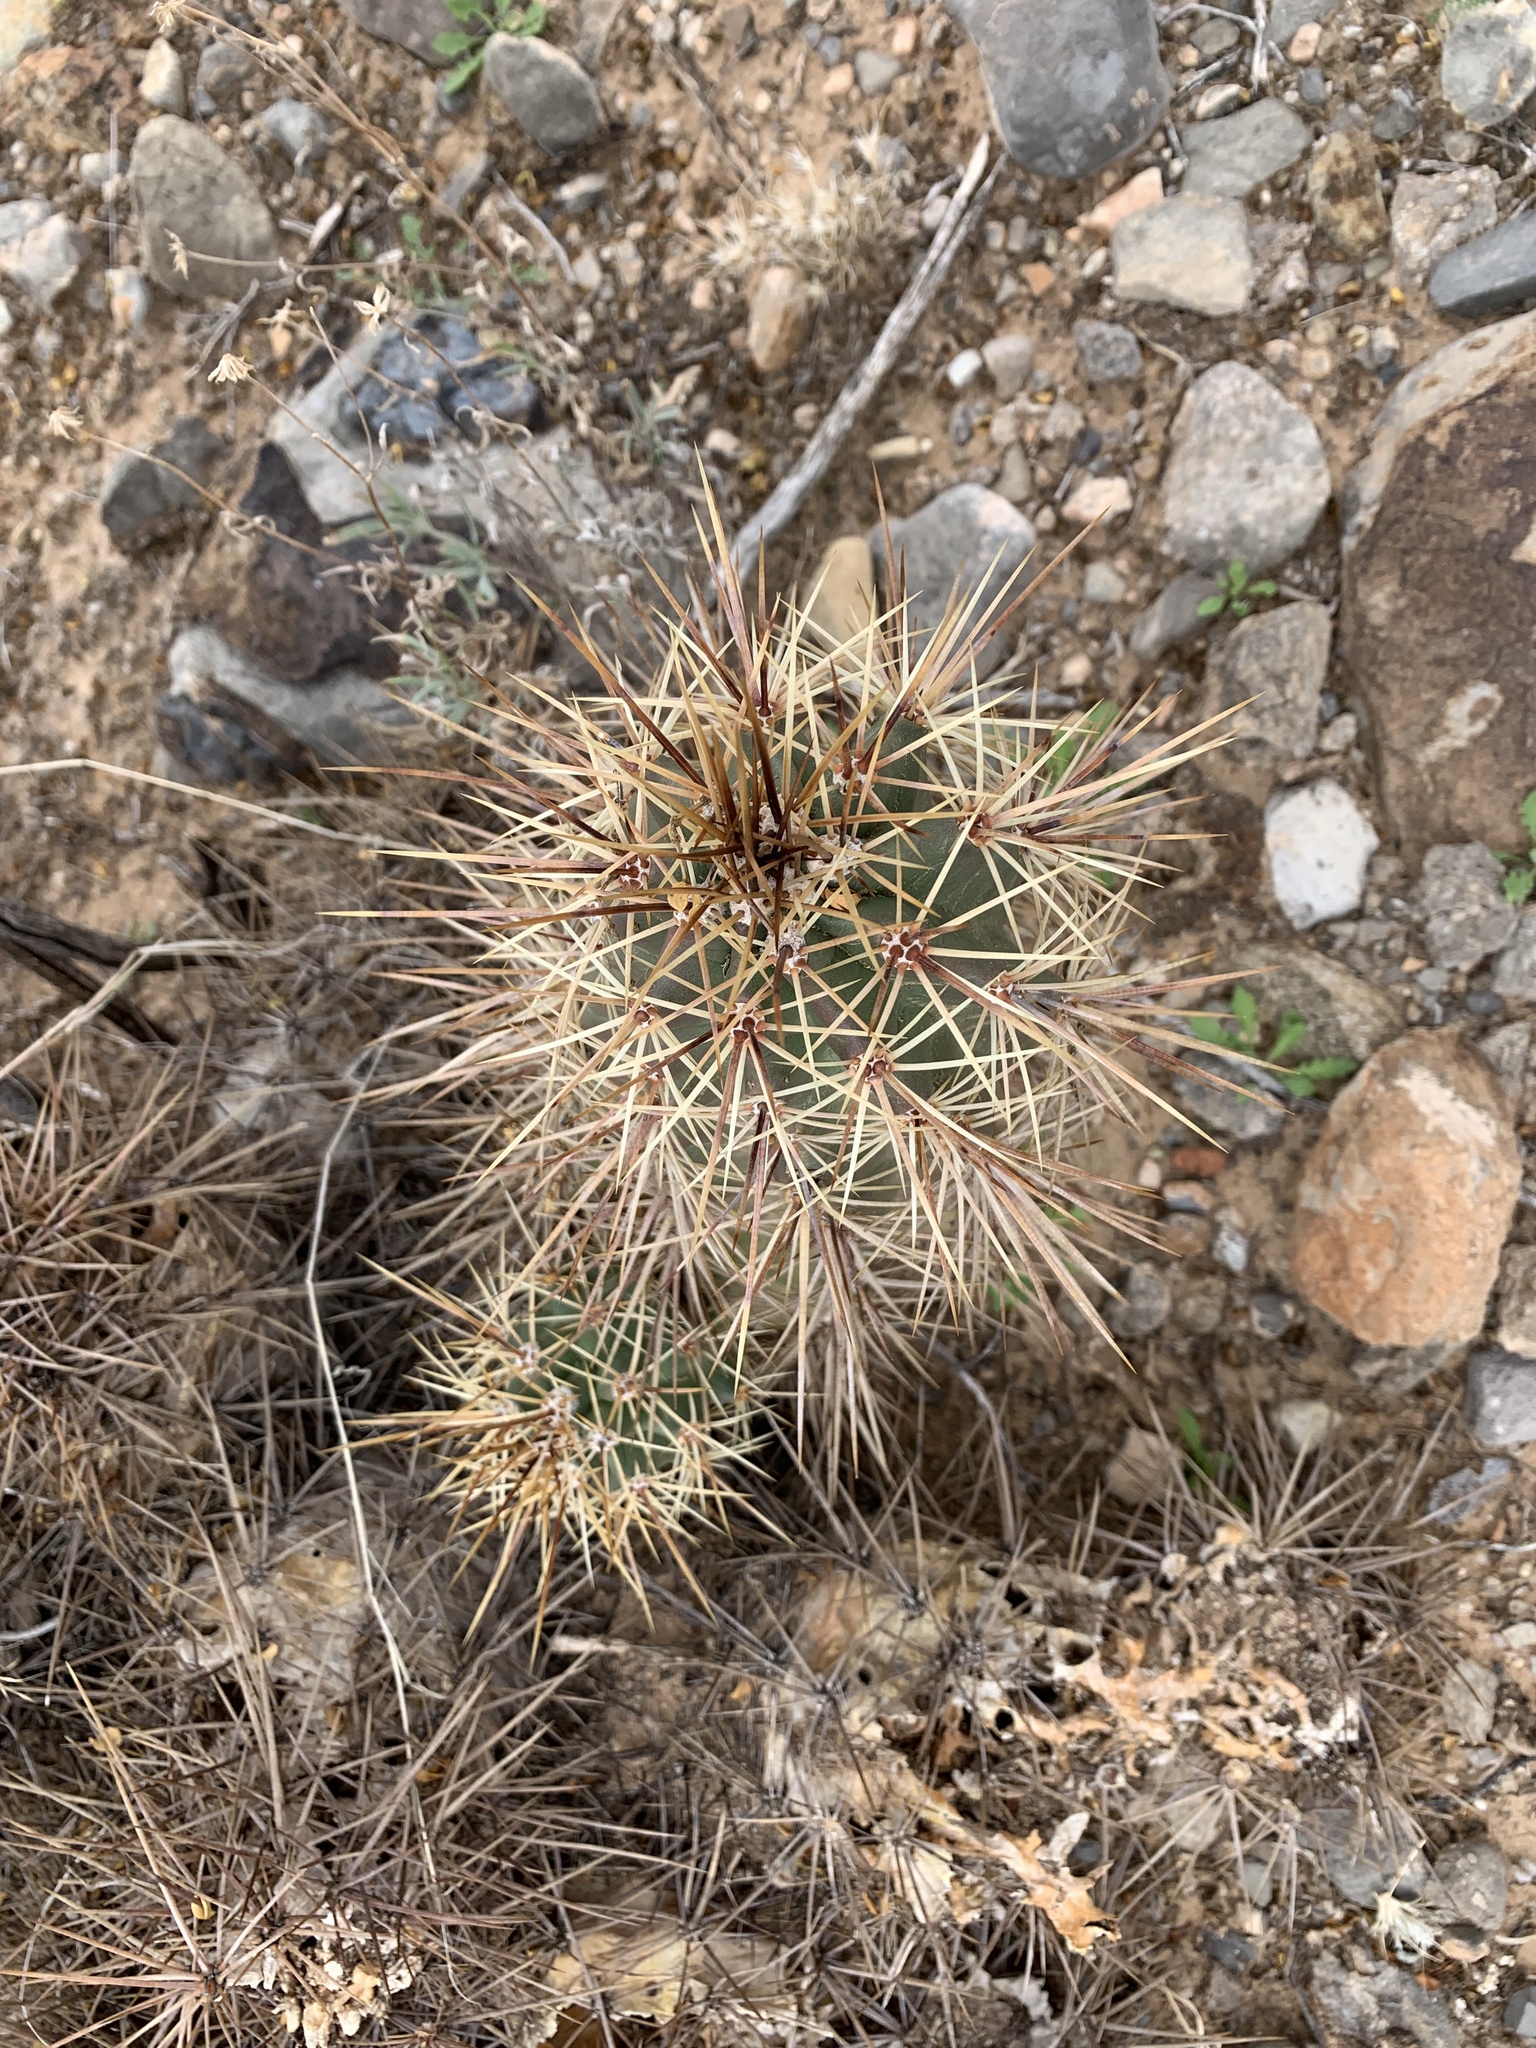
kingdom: Plantae
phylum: Tracheophyta
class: Magnoliopsida
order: Caryophyllales
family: Cactaceae
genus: Echinocereus
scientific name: Echinocereus coccineus
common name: Scarlet hedgehog cactus
